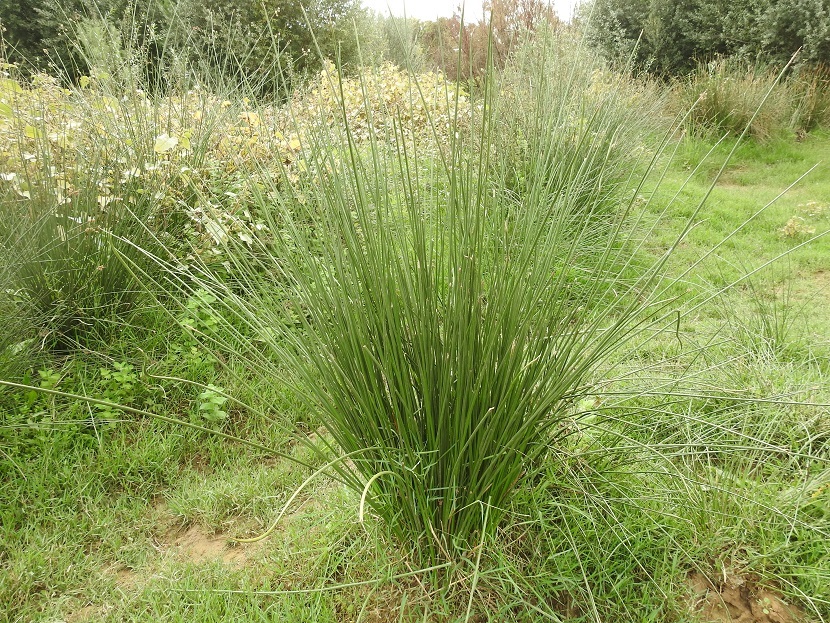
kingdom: Plantae
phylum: Tracheophyta
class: Liliopsida
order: Poales
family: Cyperaceae
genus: Scirpoides
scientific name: Scirpoides holoschoenus
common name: Round-headed club-rush
